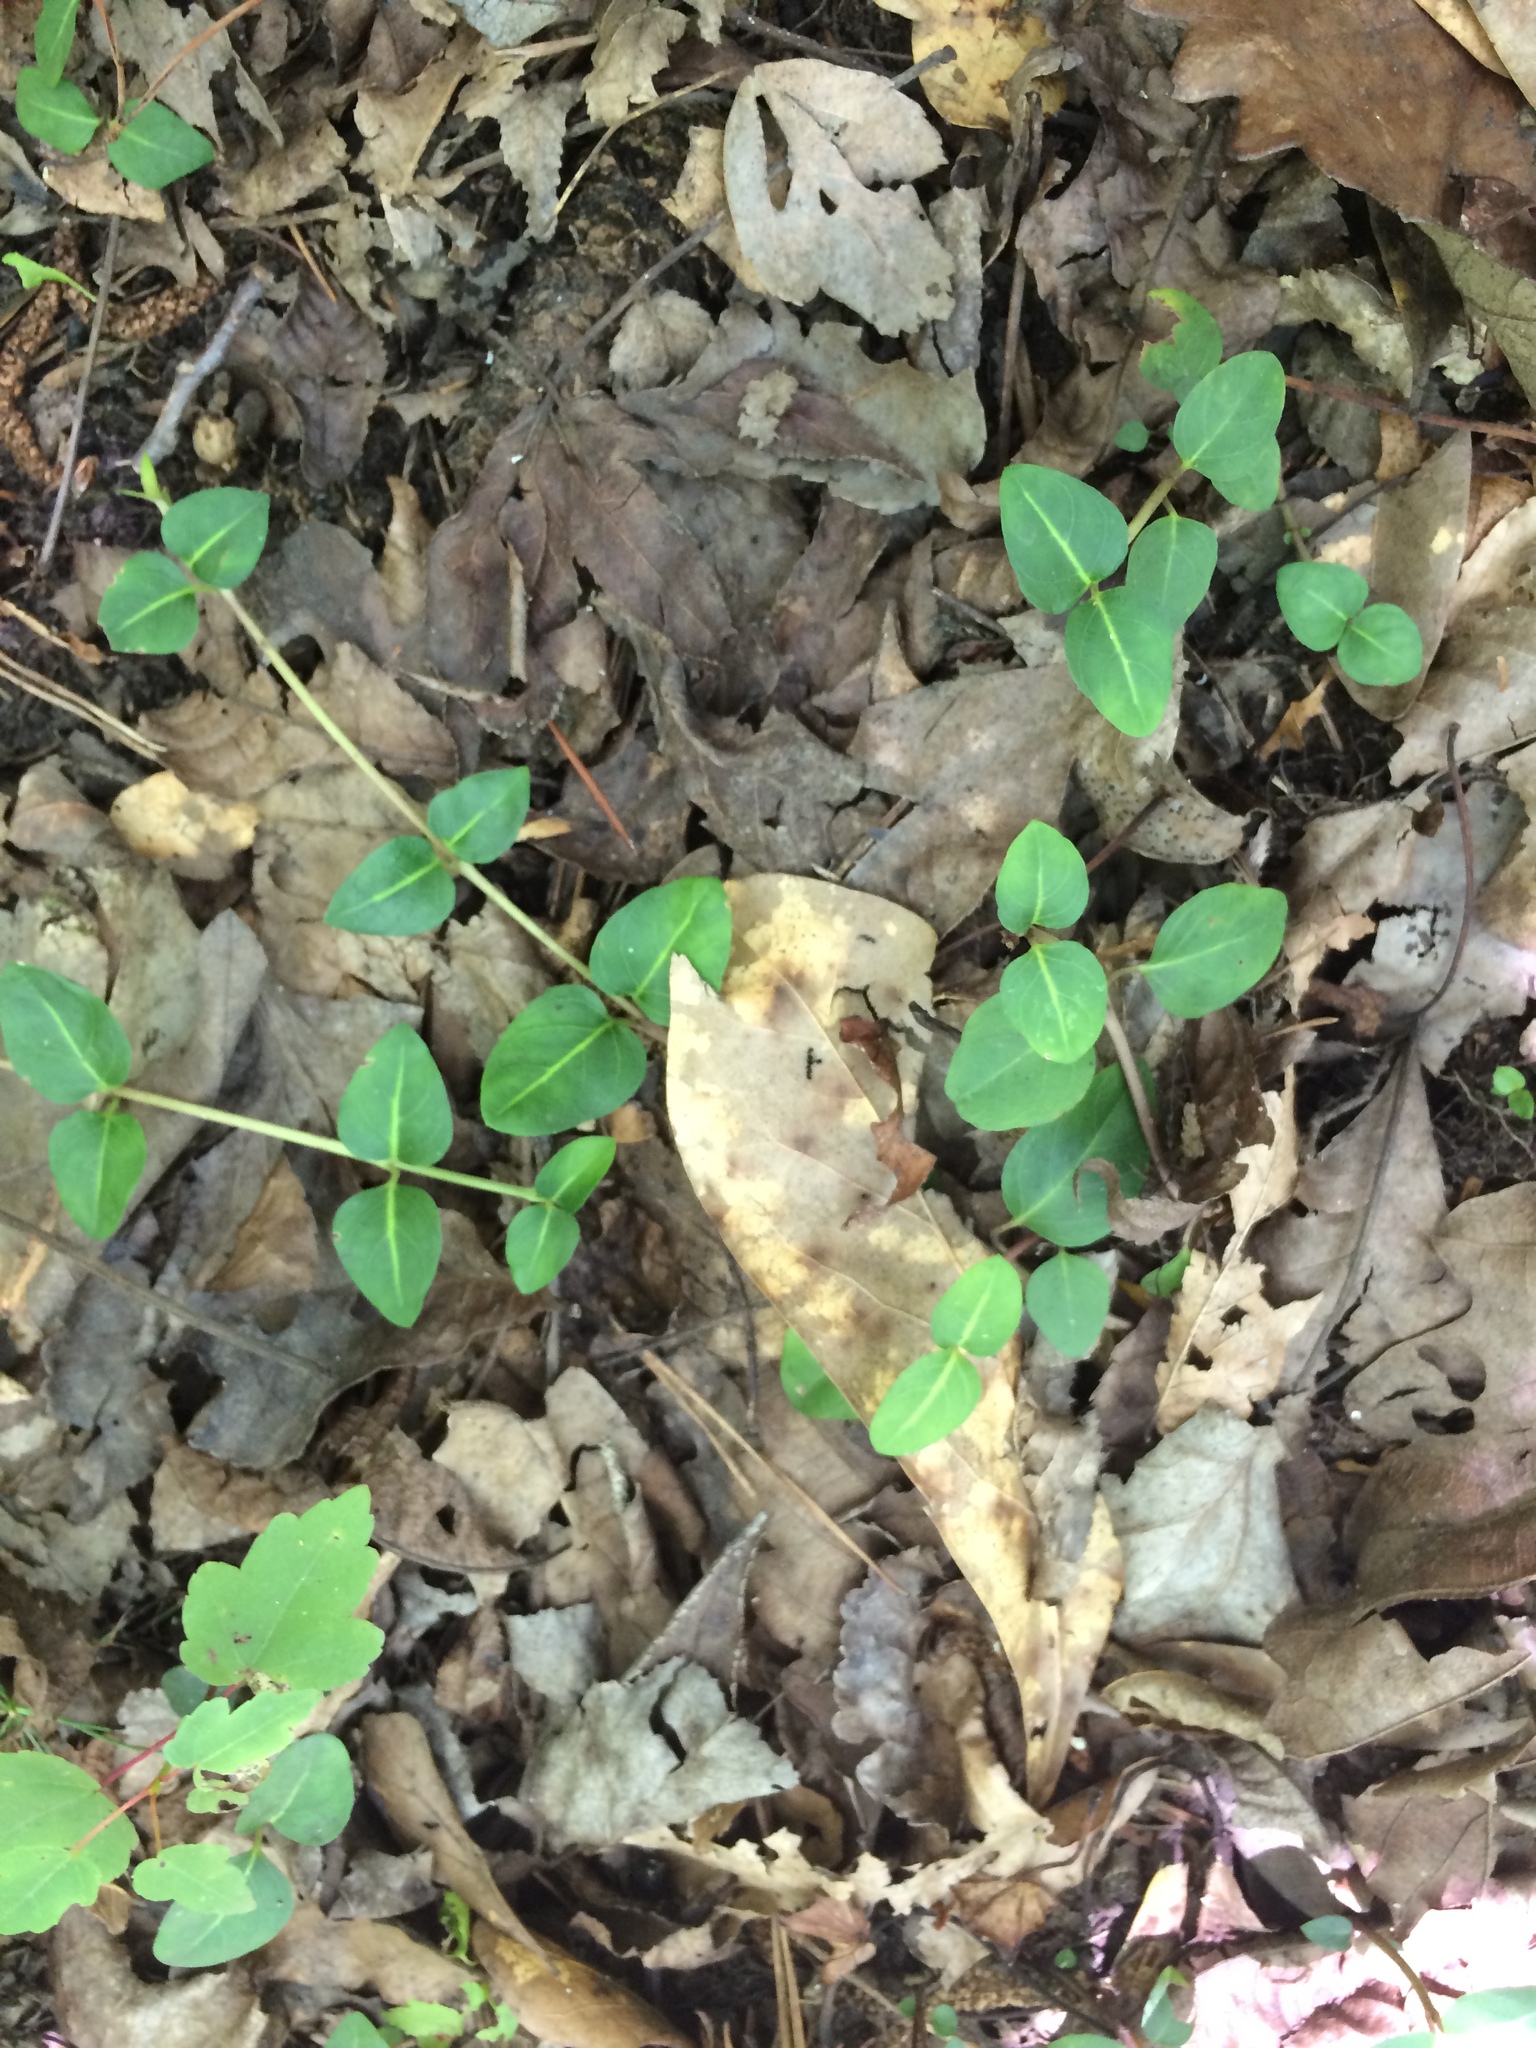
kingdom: Plantae
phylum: Tracheophyta
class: Magnoliopsida
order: Gentianales
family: Rubiaceae
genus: Mitchella
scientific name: Mitchella repens
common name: Partridge-berry
